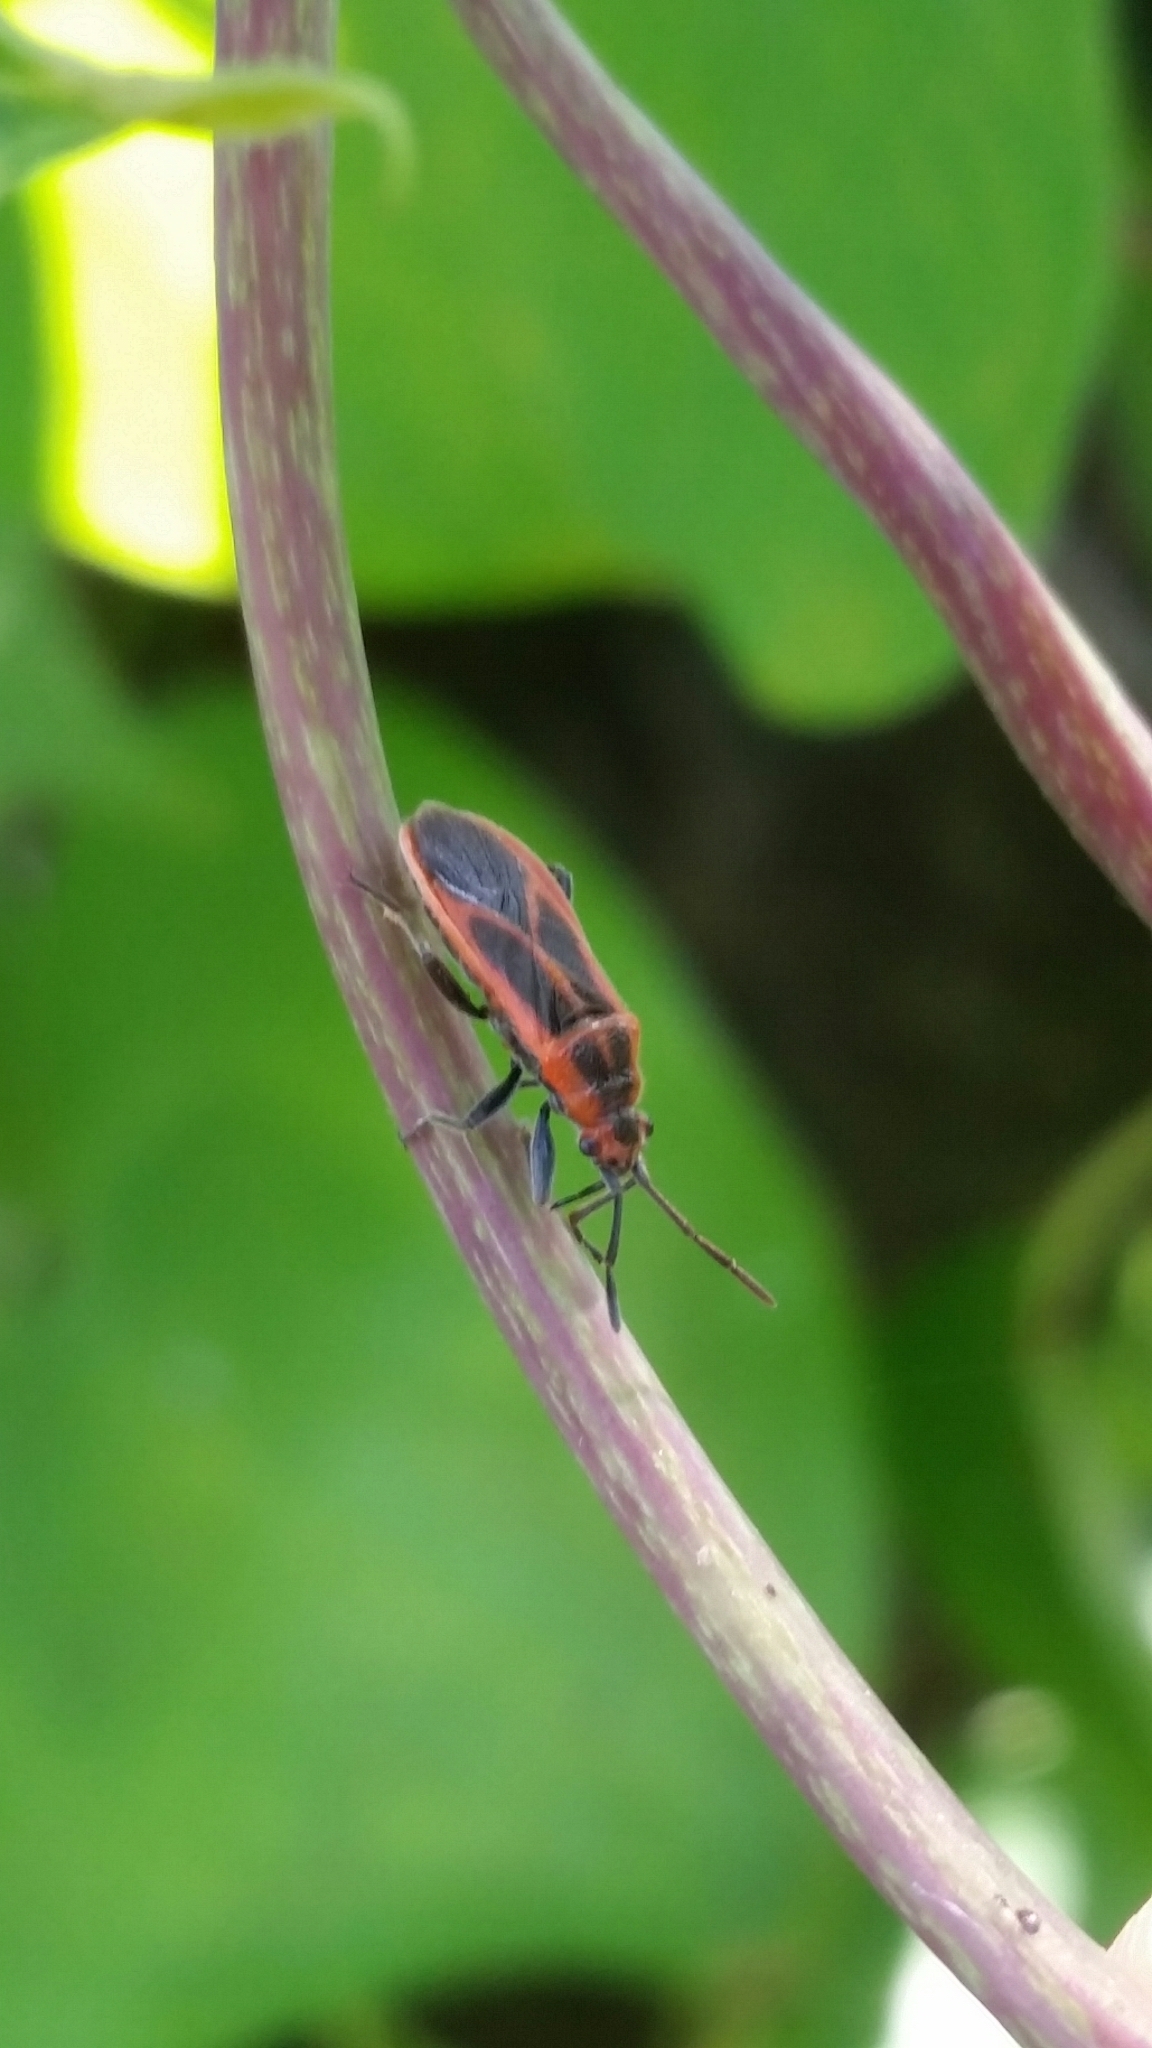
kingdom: Animalia
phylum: Arthropoda
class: Insecta
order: Hemiptera
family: Lygaeidae
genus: Arocatus
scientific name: Arocatus melanostoma
